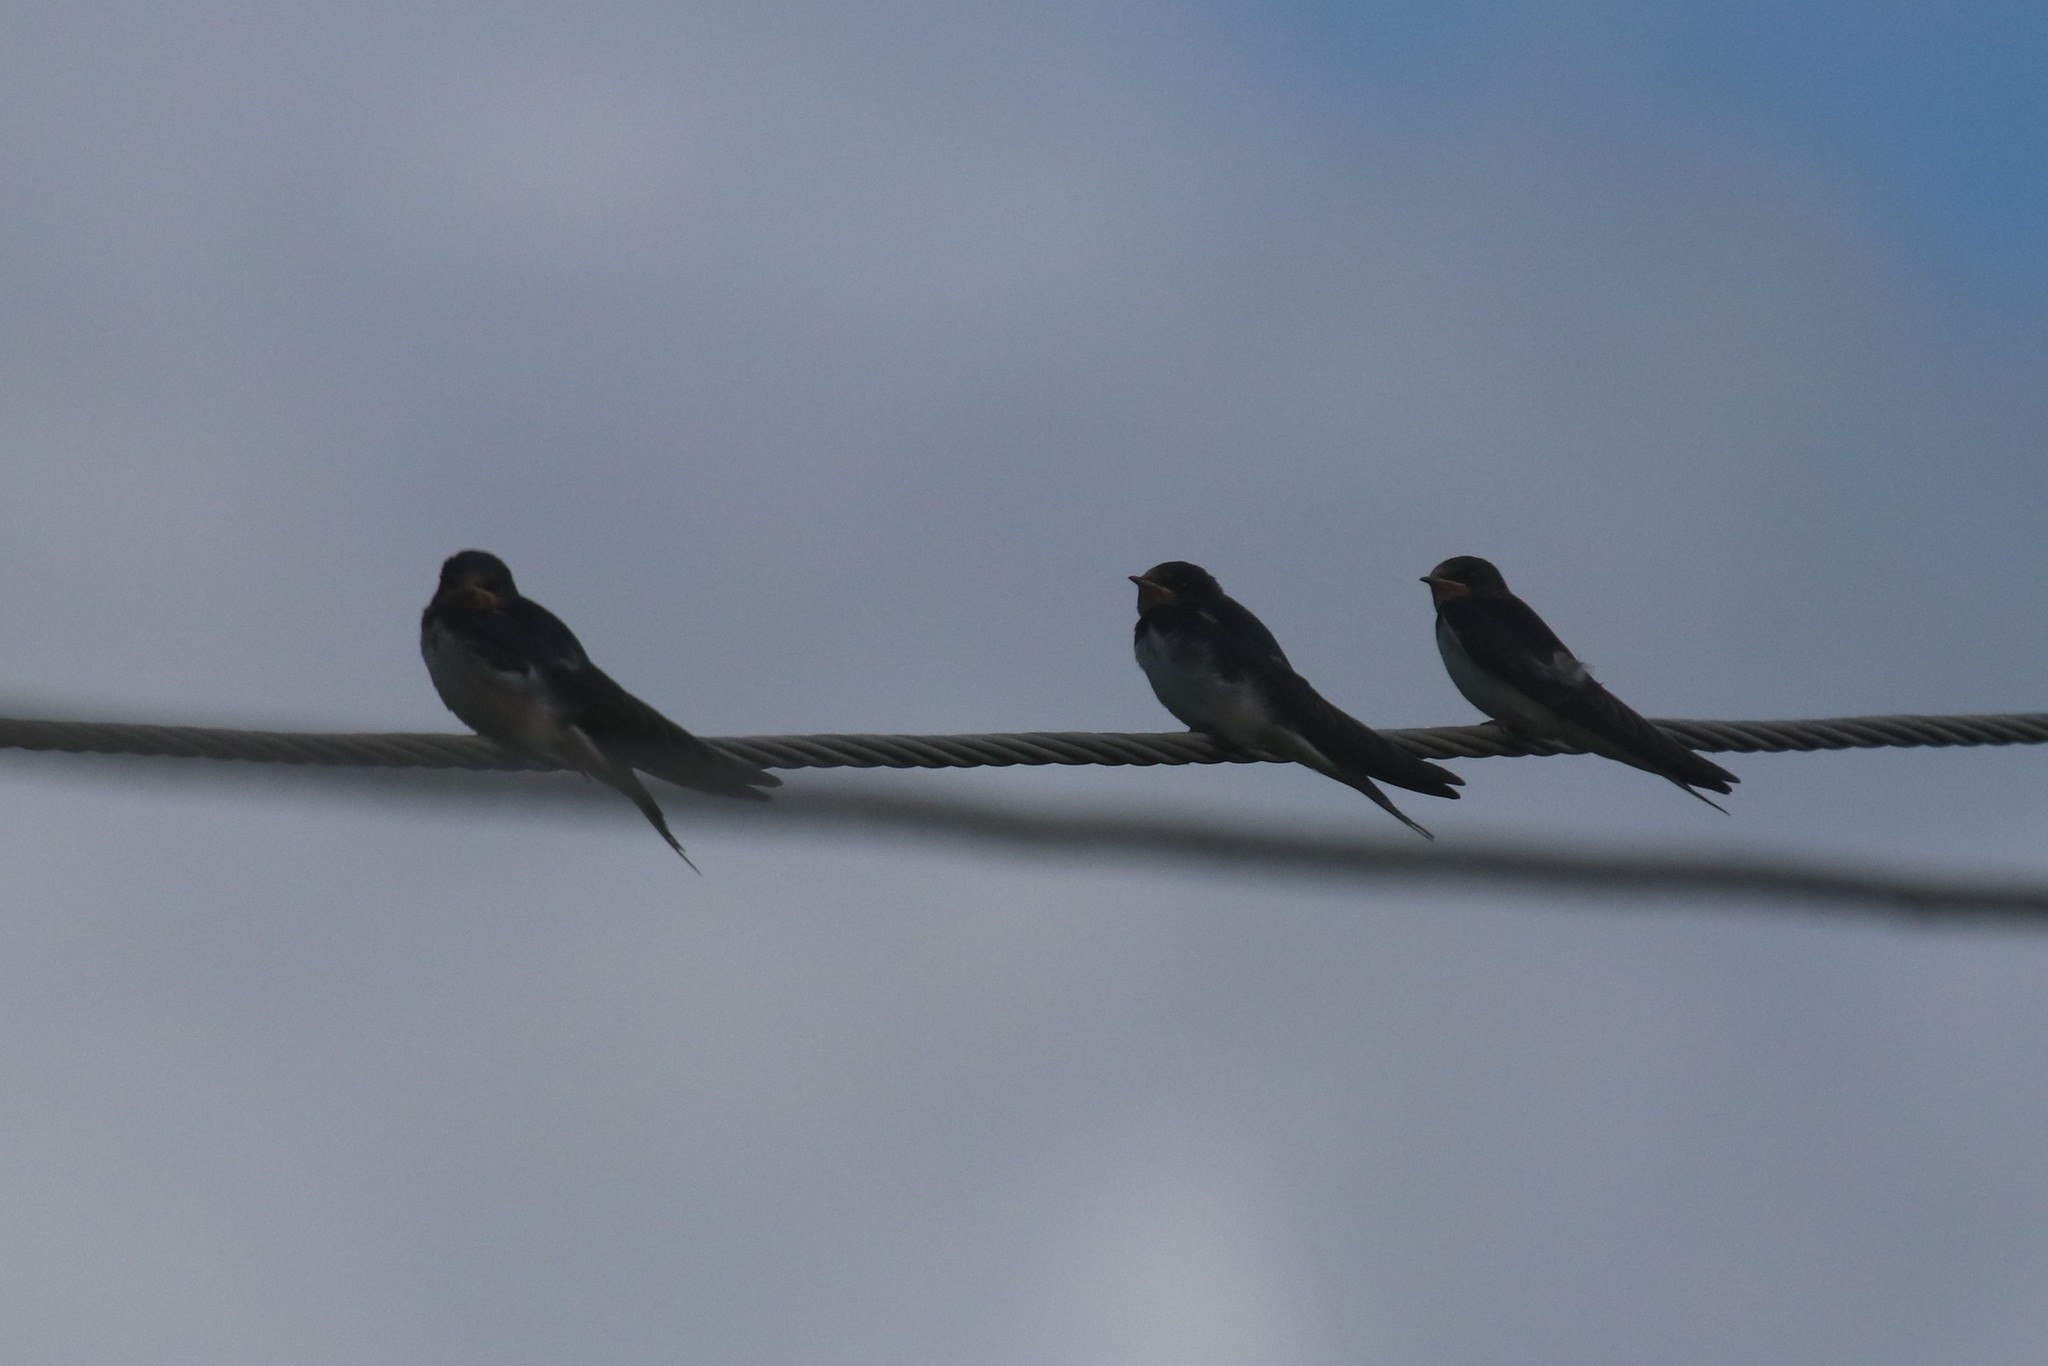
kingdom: Animalia
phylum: Chordata
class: Aves
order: Passeriformes
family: Hirundinidae
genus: Hirundo
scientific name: Hirundo rustica
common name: Barn swallow
